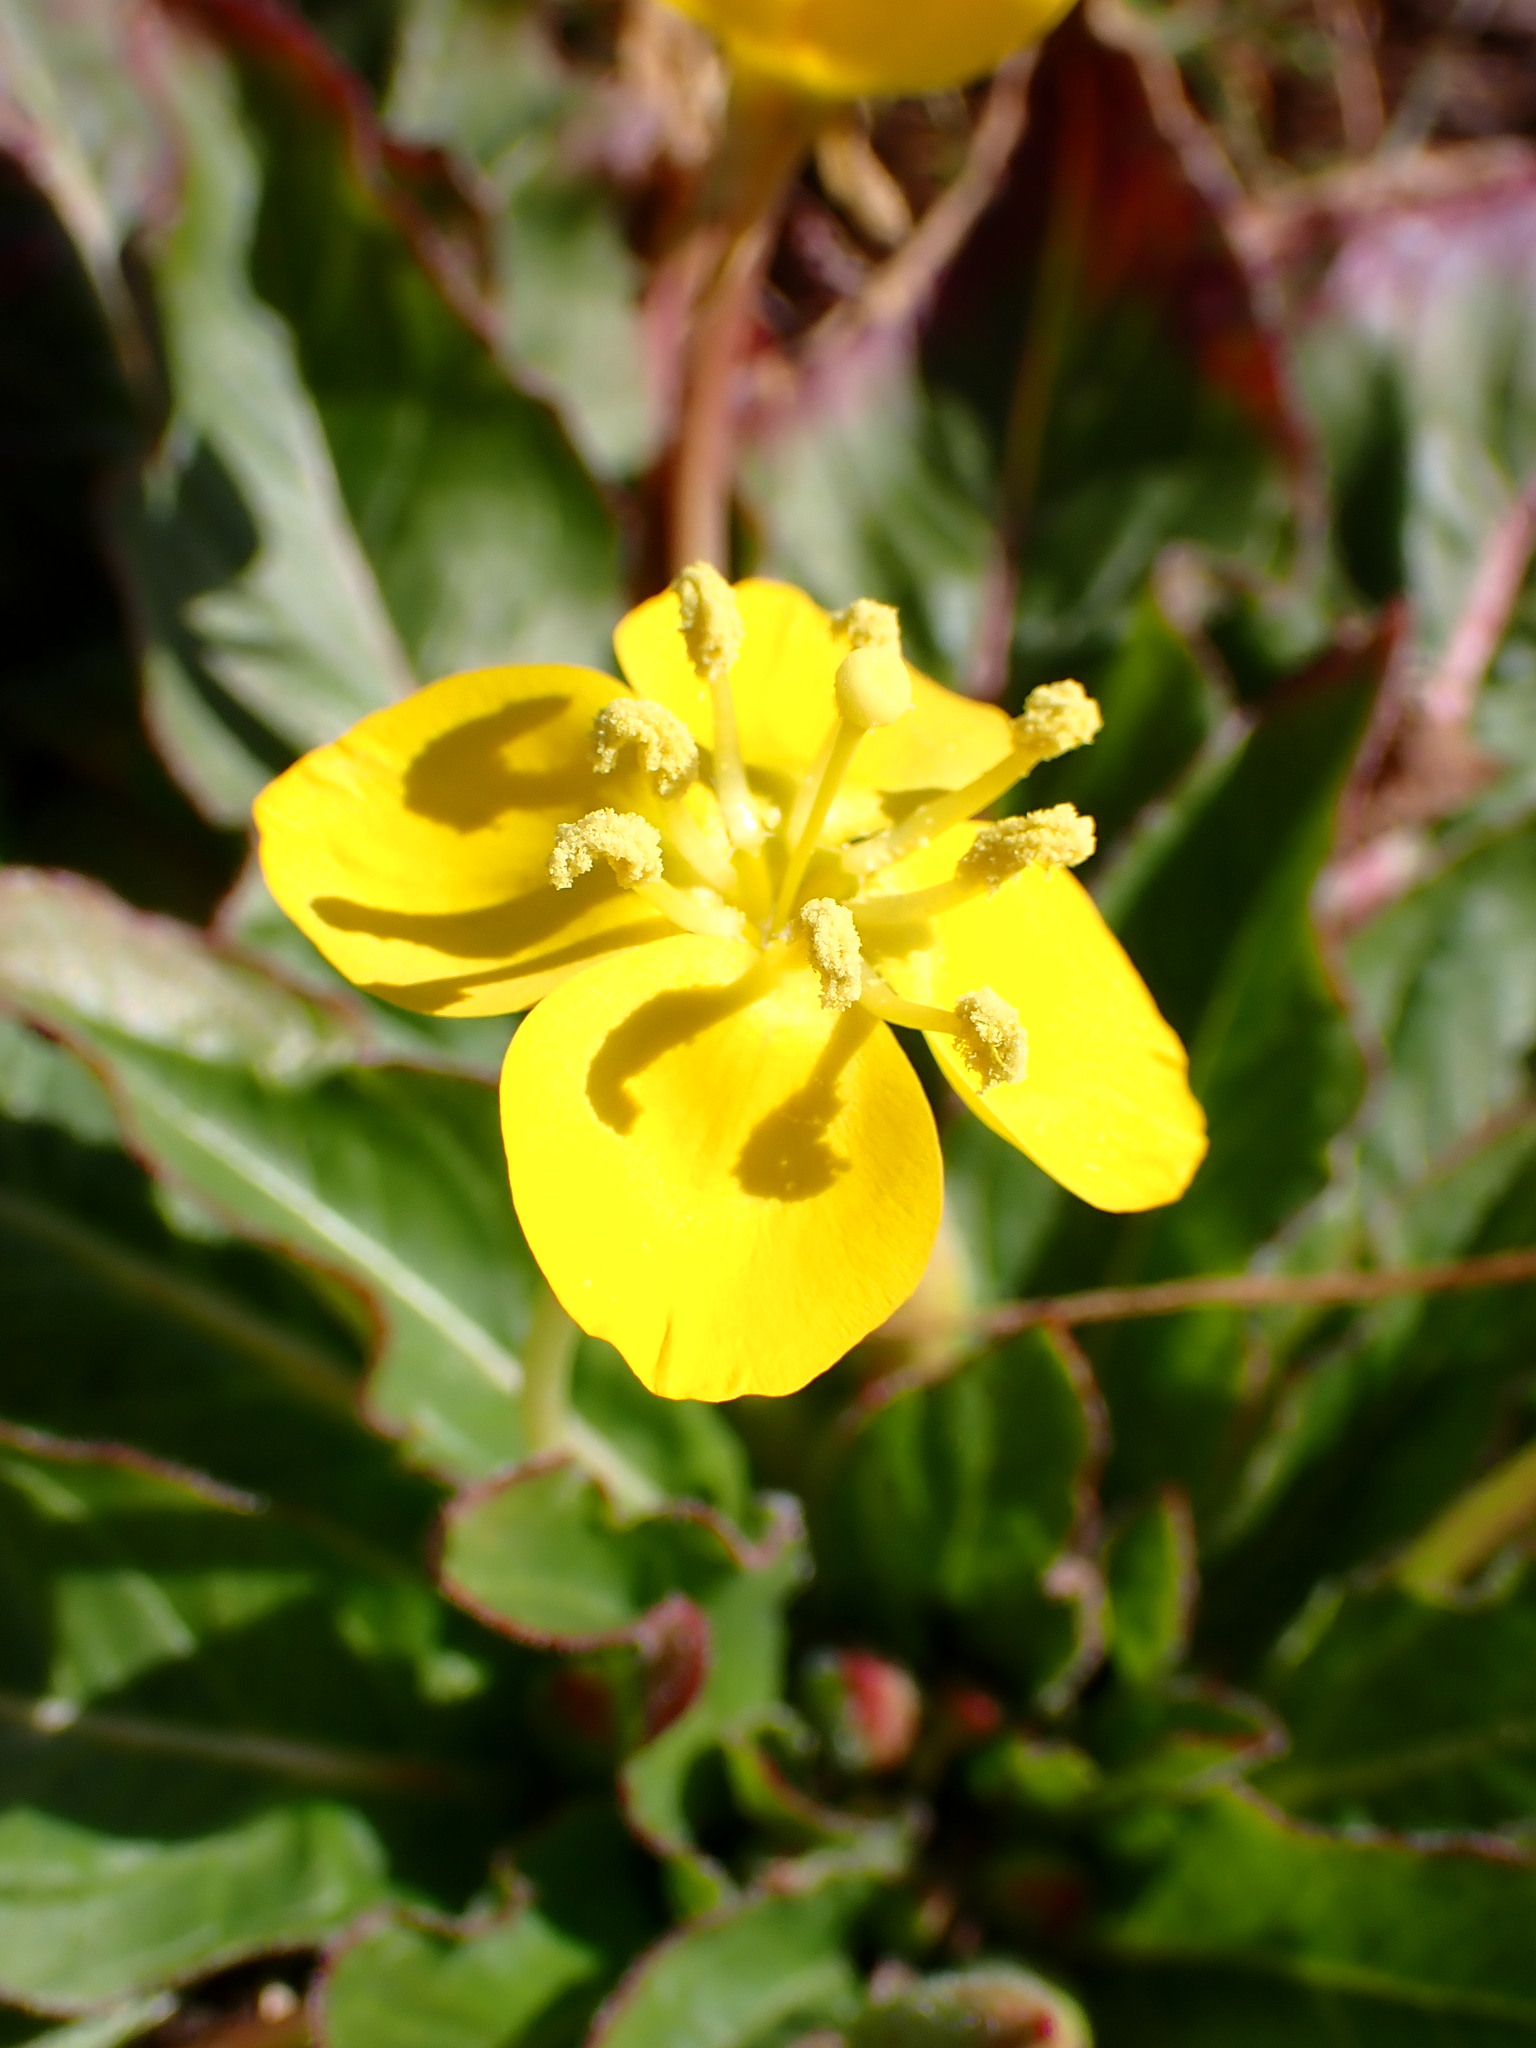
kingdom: Plantae
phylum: Tracheophyta
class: Magnoliopsida
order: Myrtales
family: Onagraceae
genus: Taraxia
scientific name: Taraxia ovata
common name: Goldeneggs
